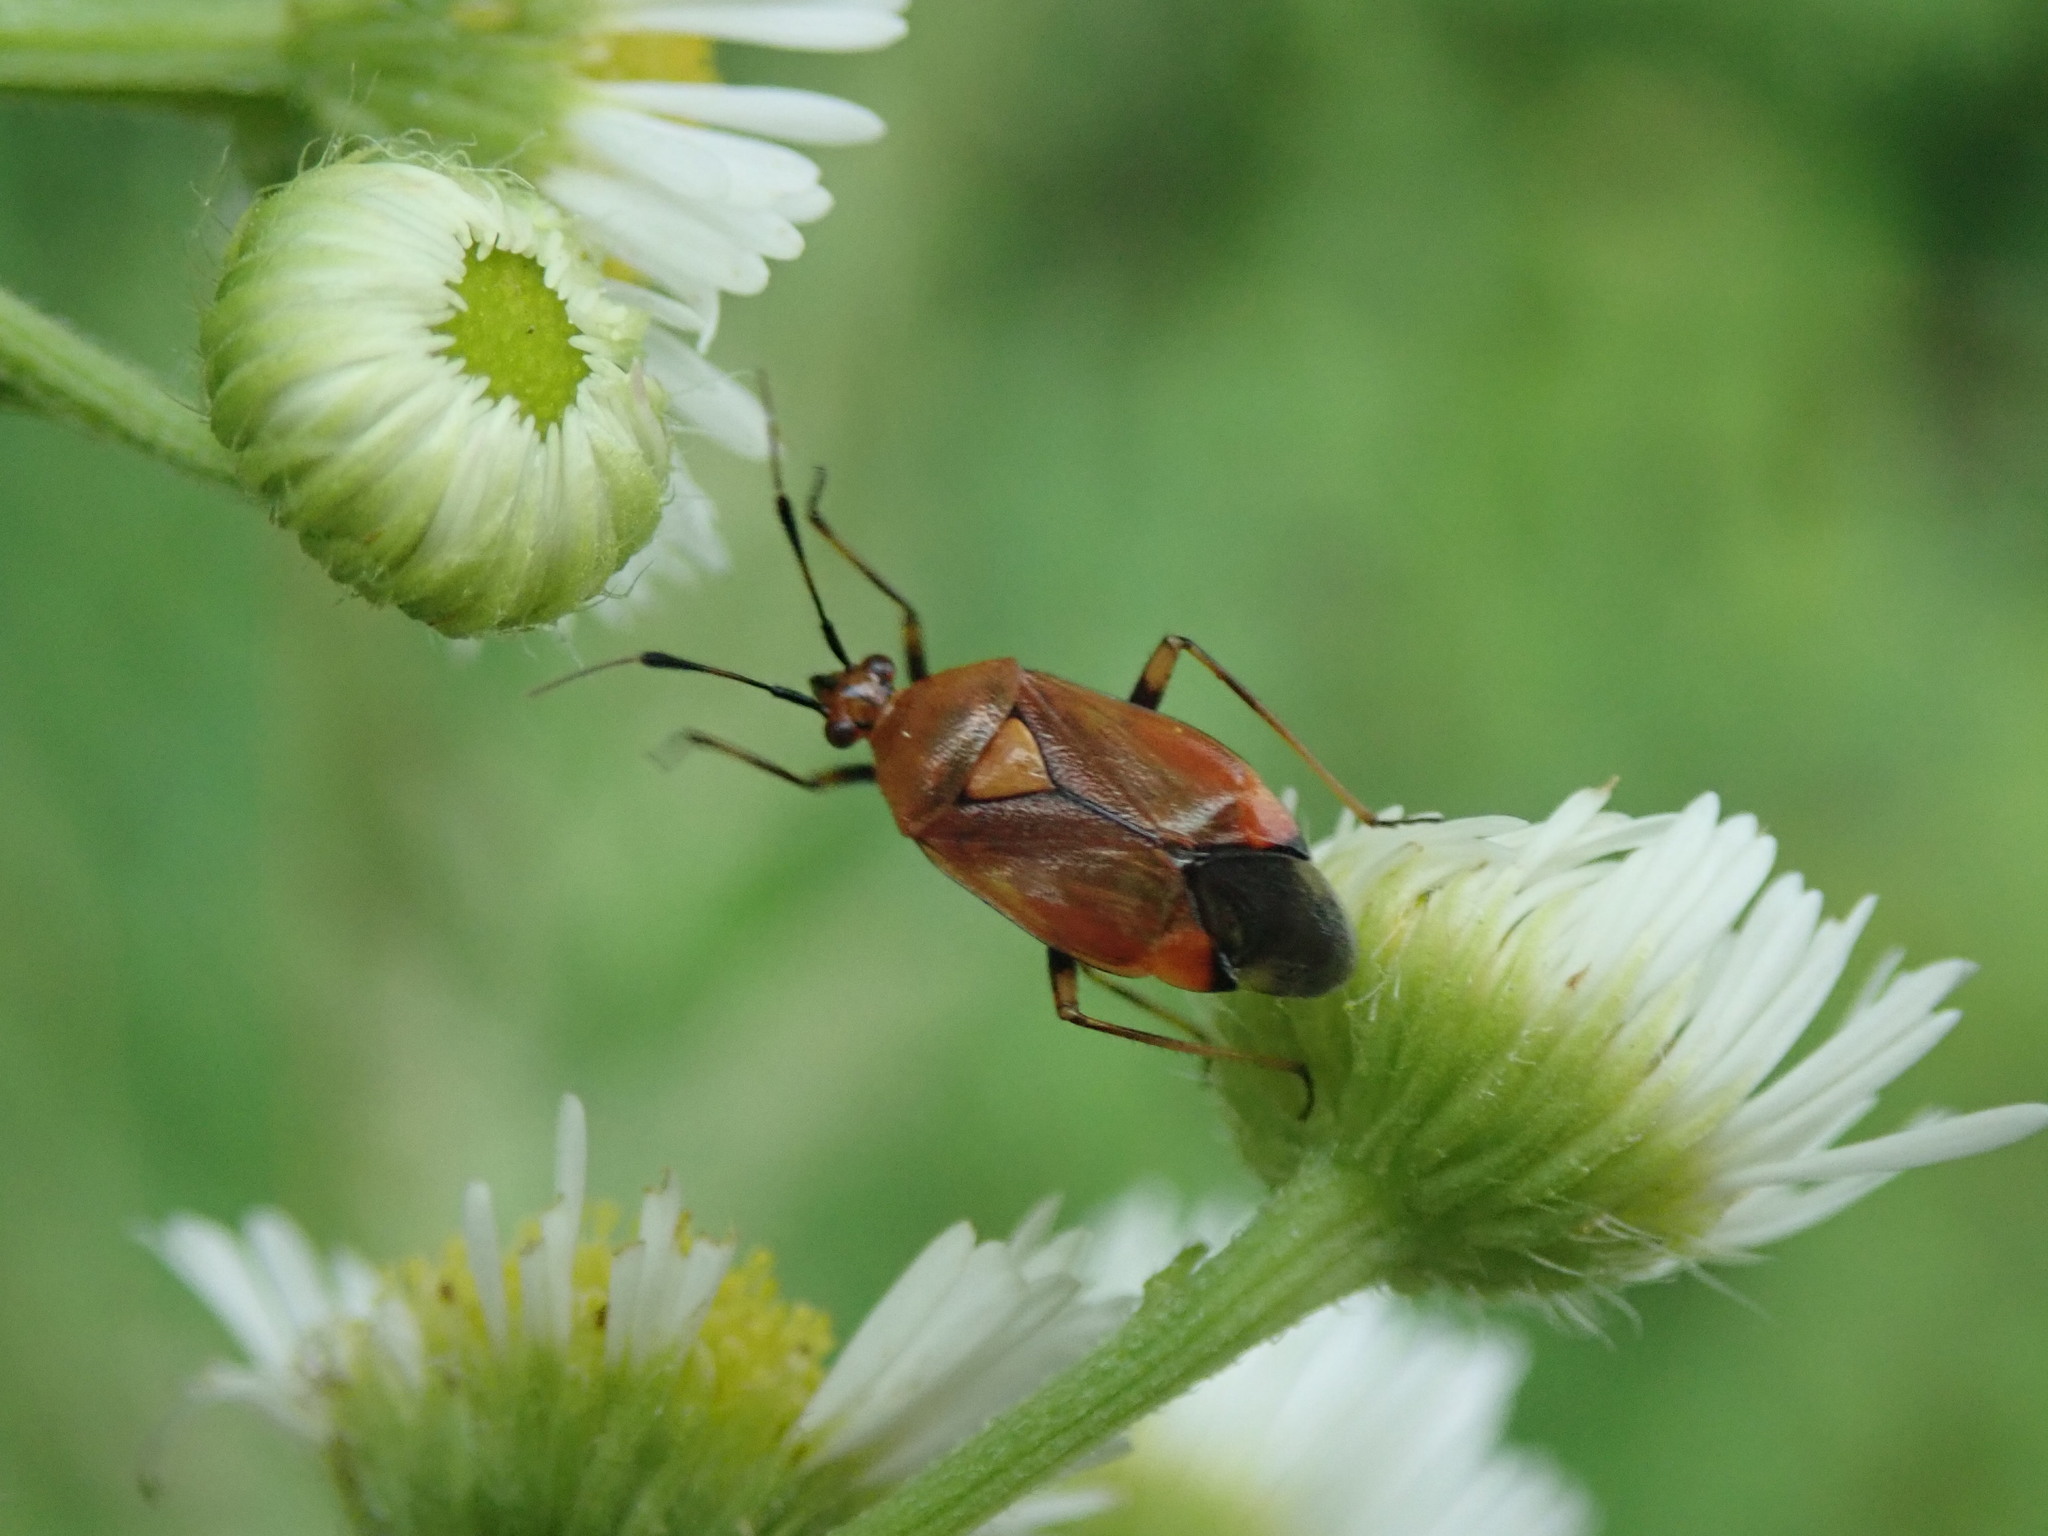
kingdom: Animalia
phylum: Arthropoda
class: Insecta
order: Hemiptera
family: Miridae
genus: Deraeocoris
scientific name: Deraeocoris ruber
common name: Plant bug
